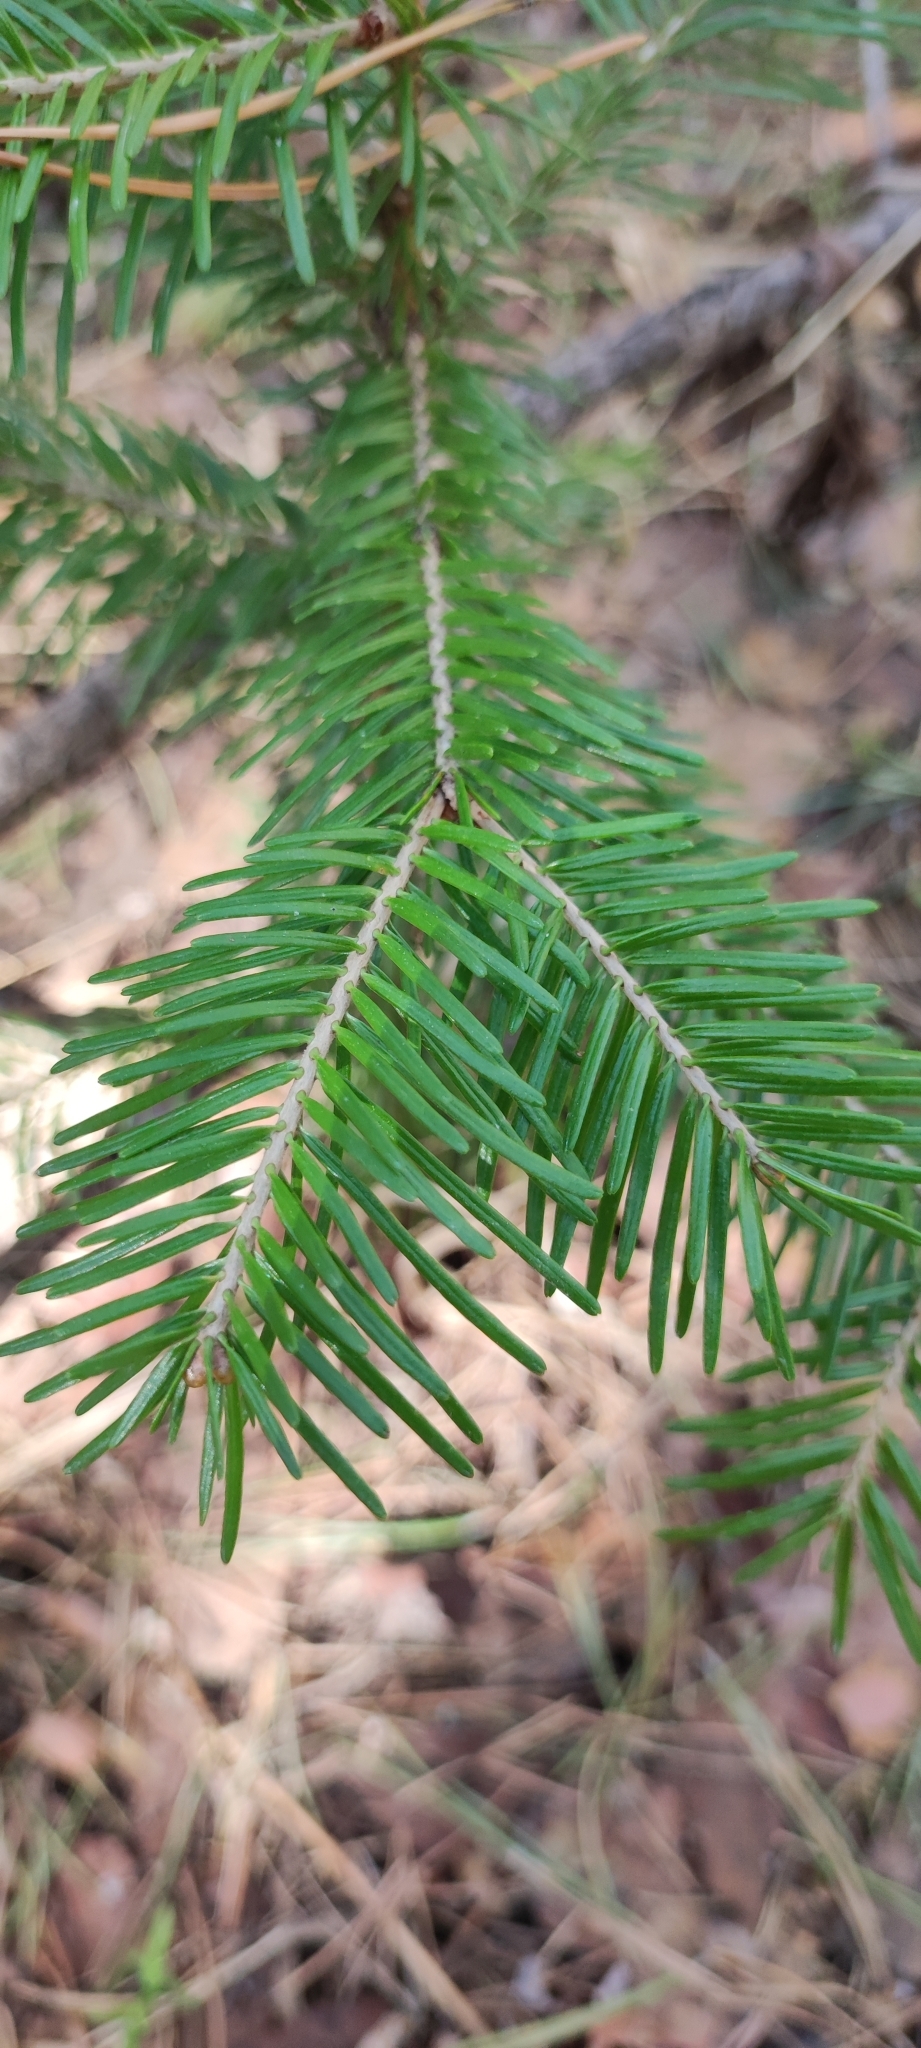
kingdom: Plantae
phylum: Tracheophyta
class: Pinopsida
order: Pinales
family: Pinaceae
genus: Abies
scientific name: Abies sibirica
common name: Siberian fir
